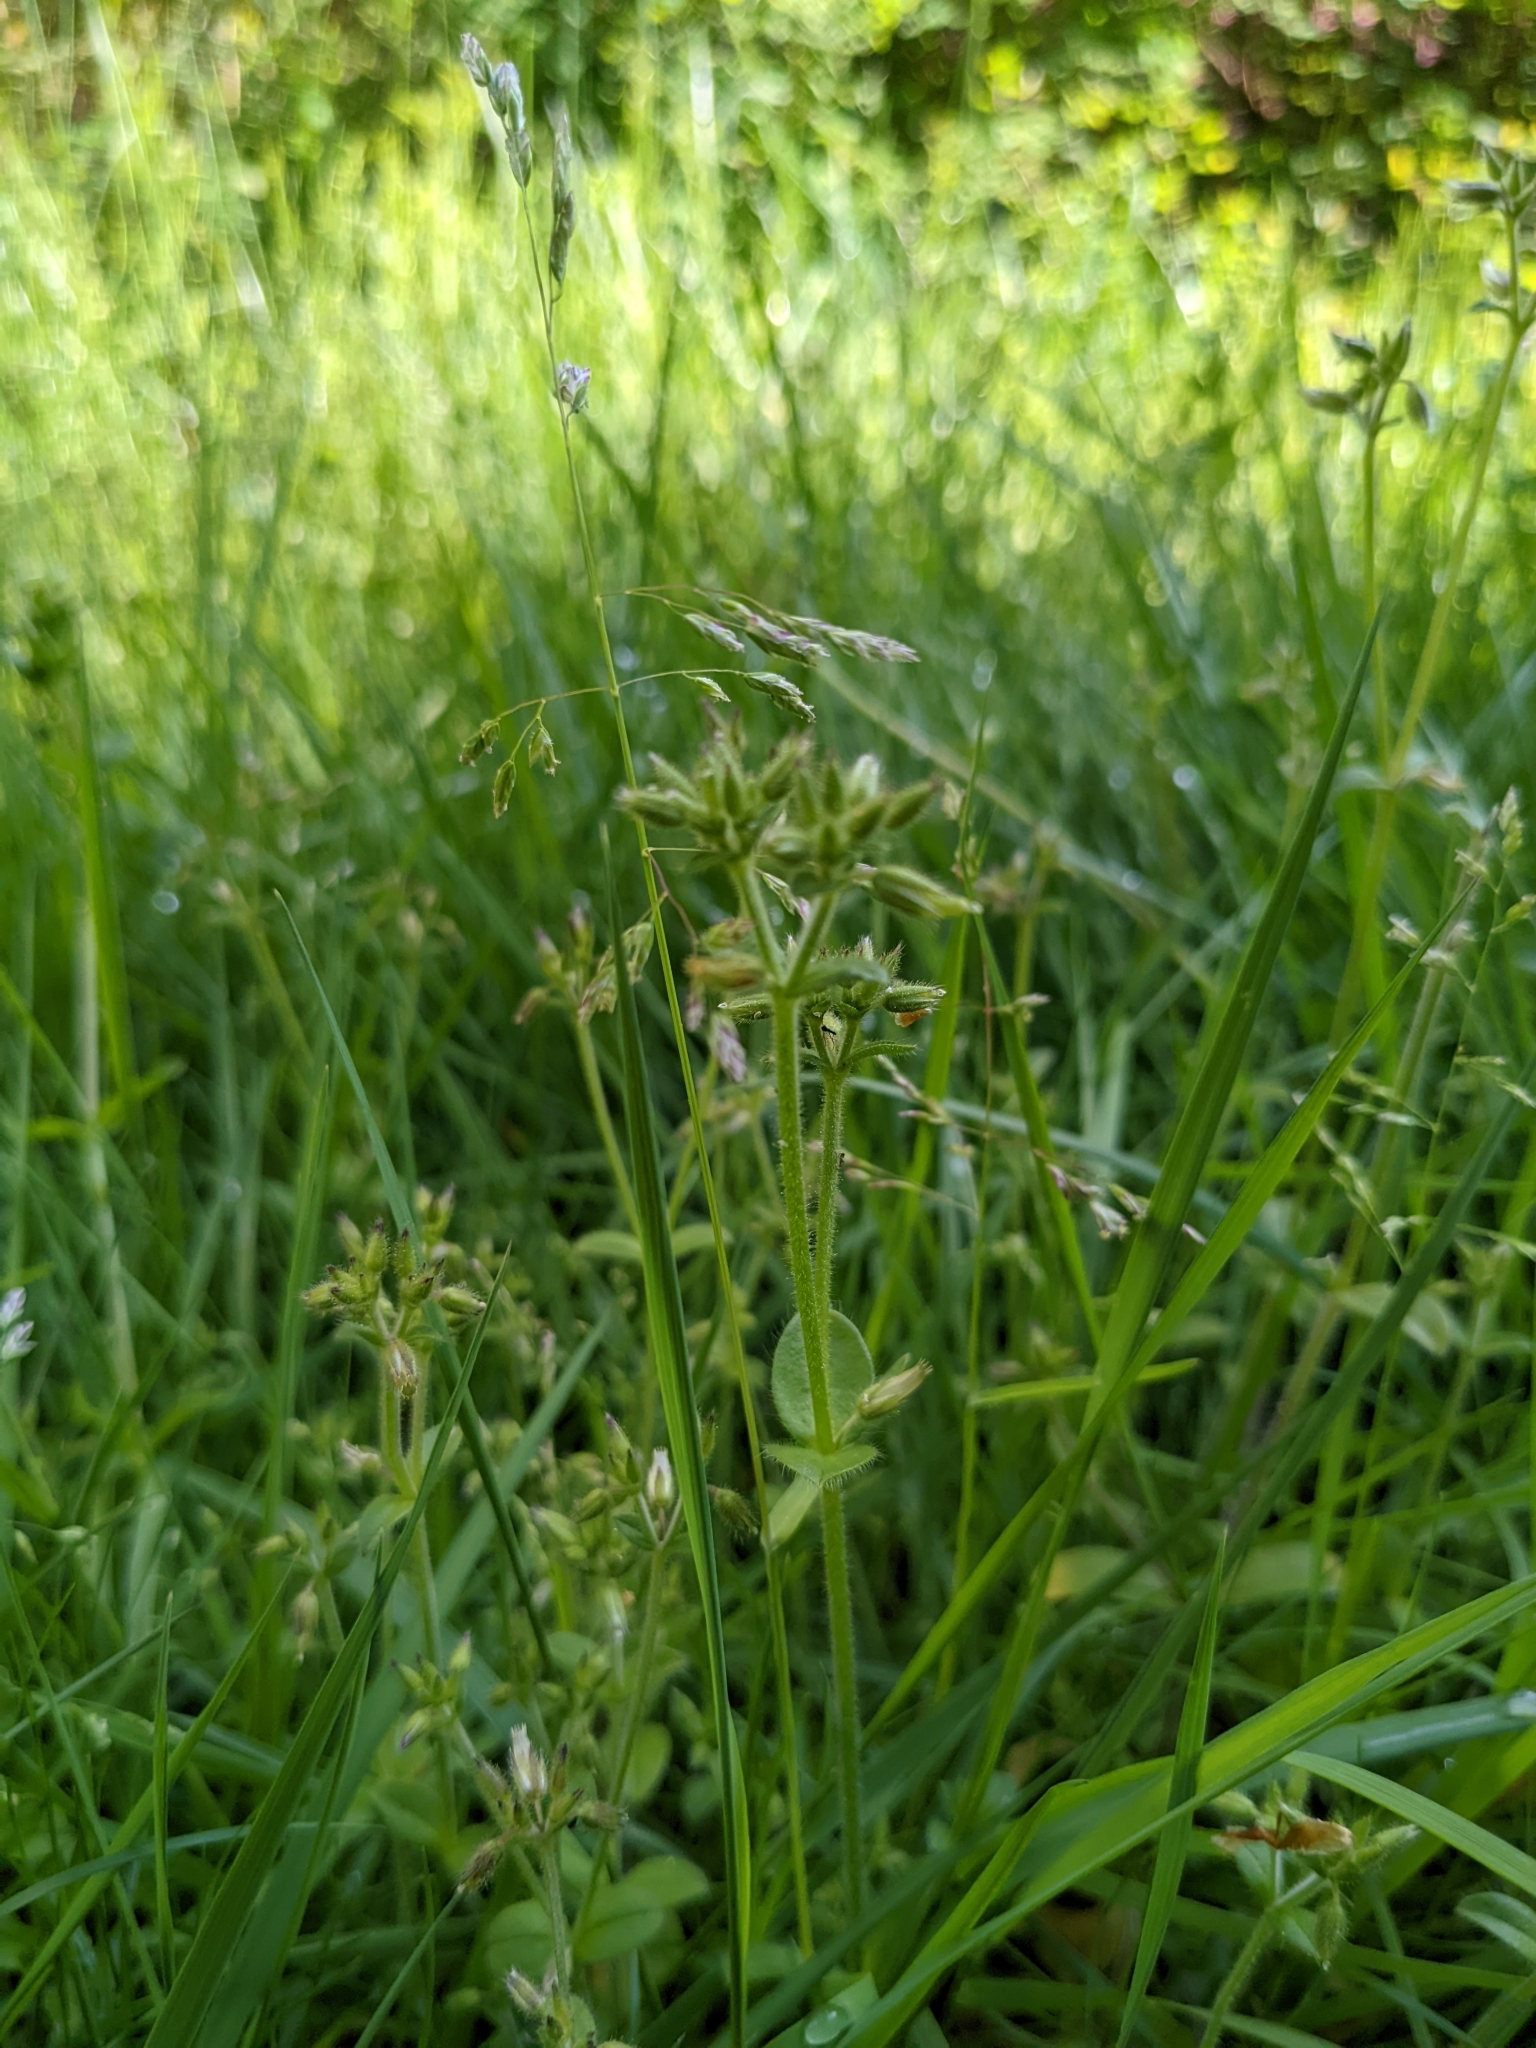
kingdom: Plantae
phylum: Tracheophyta
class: Magnoliopsida
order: Caryophyllales
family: Caryophyllaceae
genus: Cerastium
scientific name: Cerastium glomeratum
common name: Sticky chickweed
